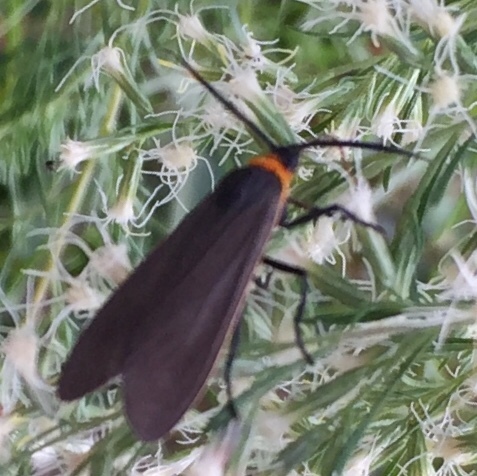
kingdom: Animalia
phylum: Arthropoda
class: Insecta
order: Lepidoptera
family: Erebidae
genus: Cisseps
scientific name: Cisseps fulvicollis
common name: Yellow-collared scape moth
